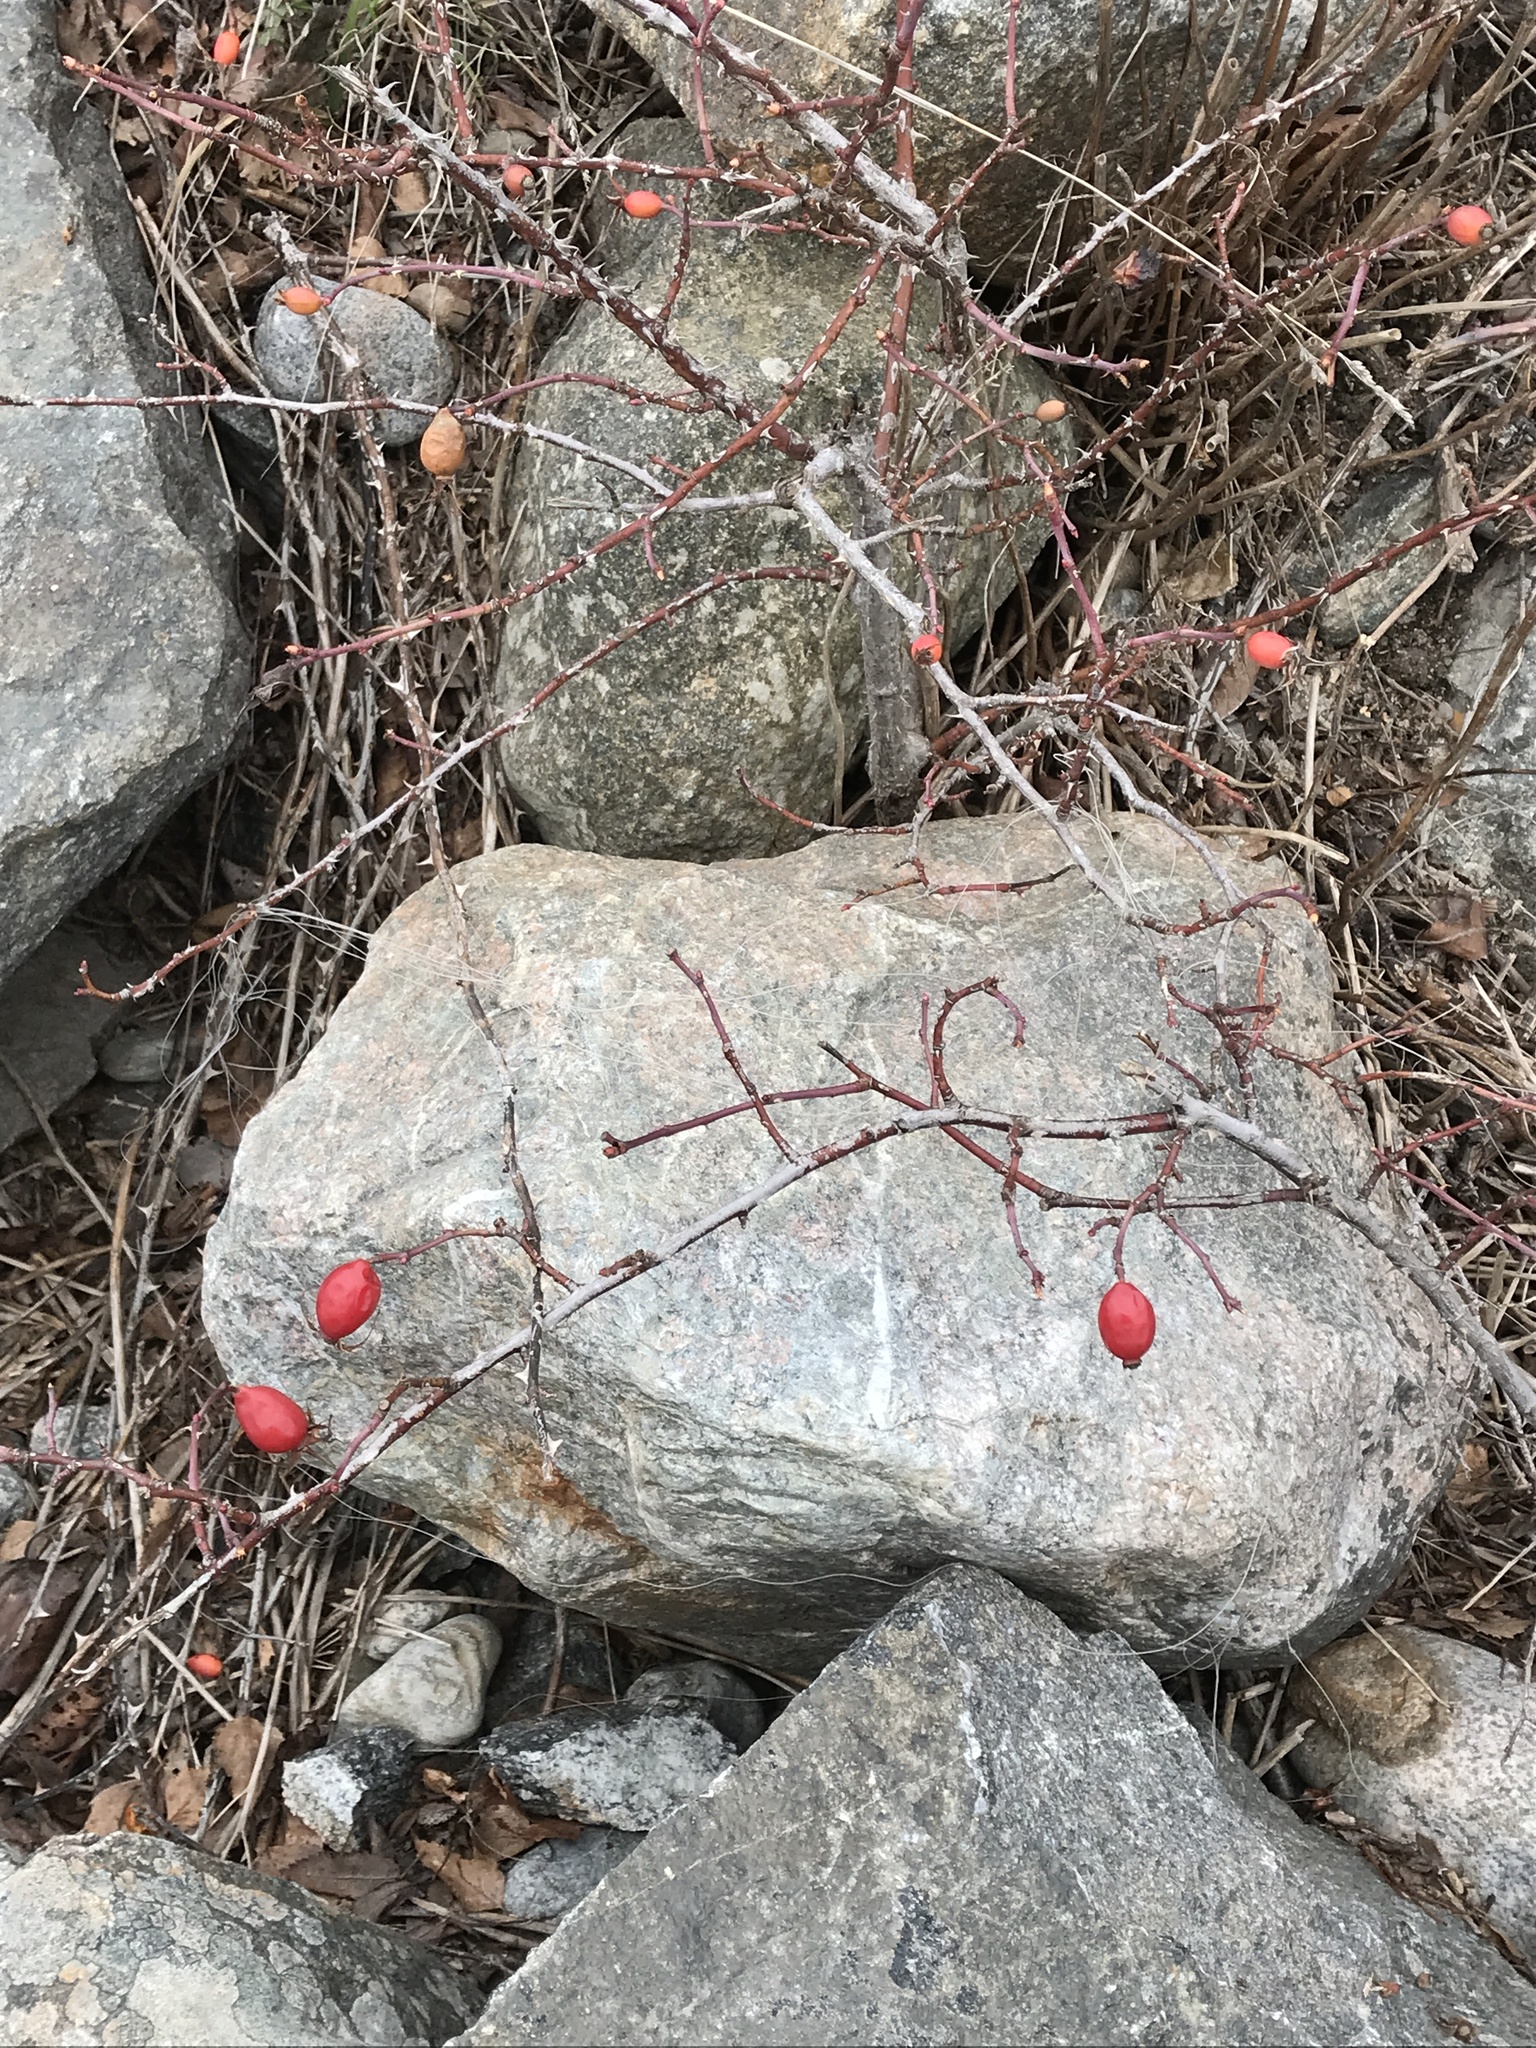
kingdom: Plantae
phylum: Tracheophyta
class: Magnoliopsida
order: Rosales
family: Rosaceae
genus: Rosa
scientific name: Rosa canina
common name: Dog rose
